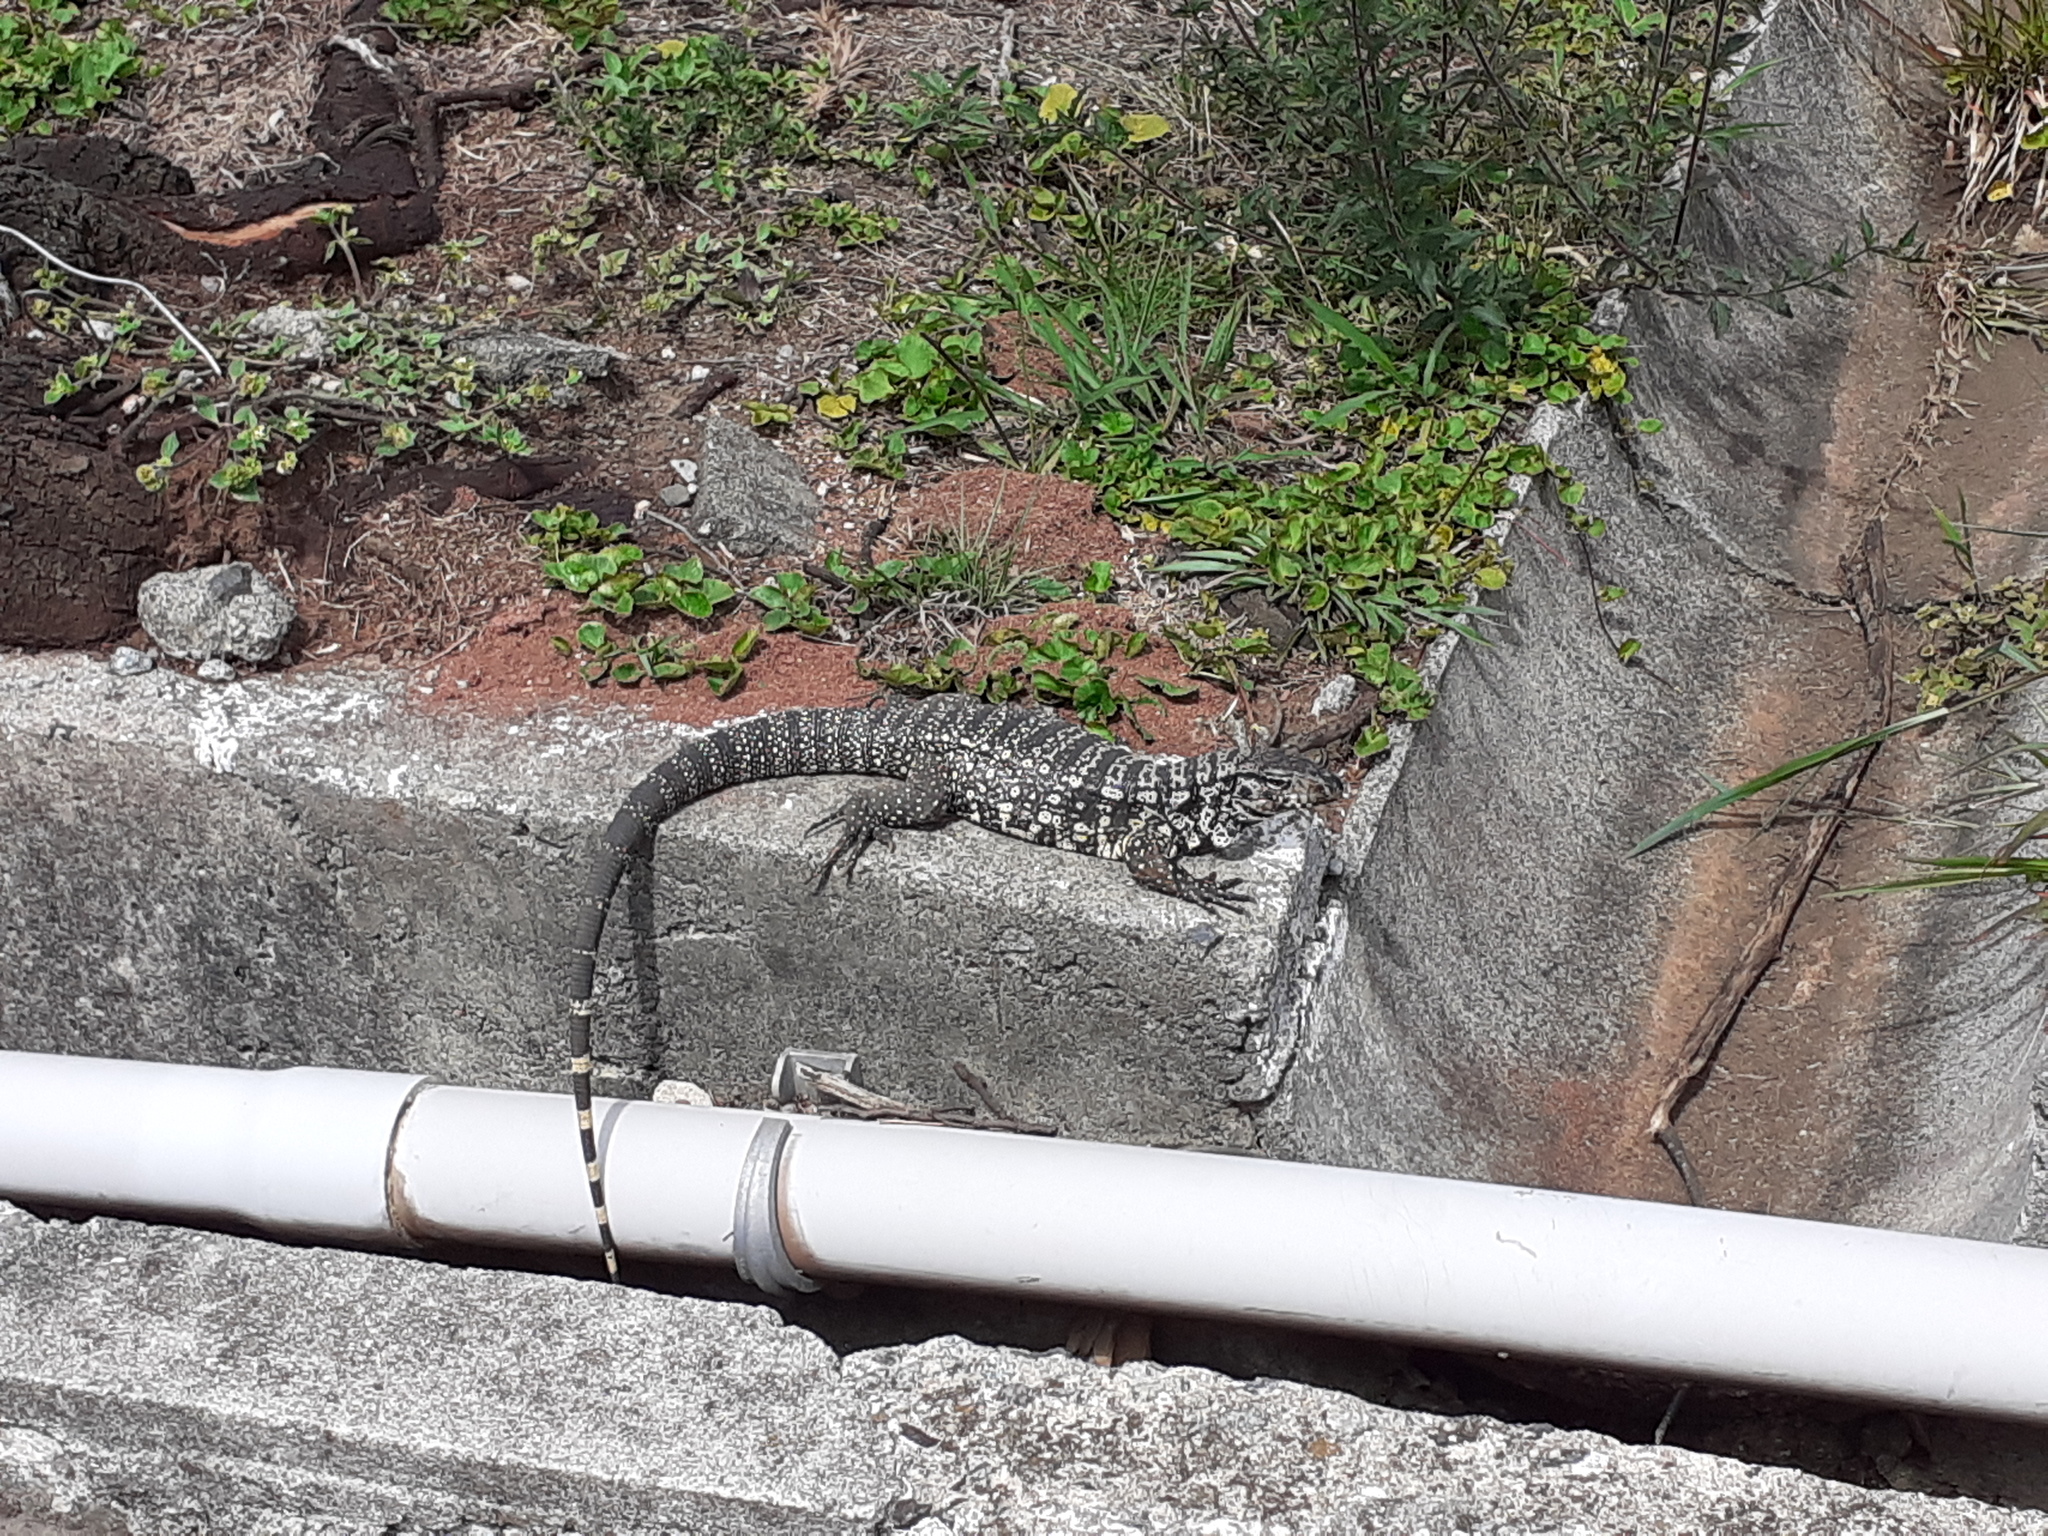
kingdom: Animalia
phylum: Chordata
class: Squamata
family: Teiidae
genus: Salvator
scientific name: Salvator merianae
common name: Argentine black and white tegu
